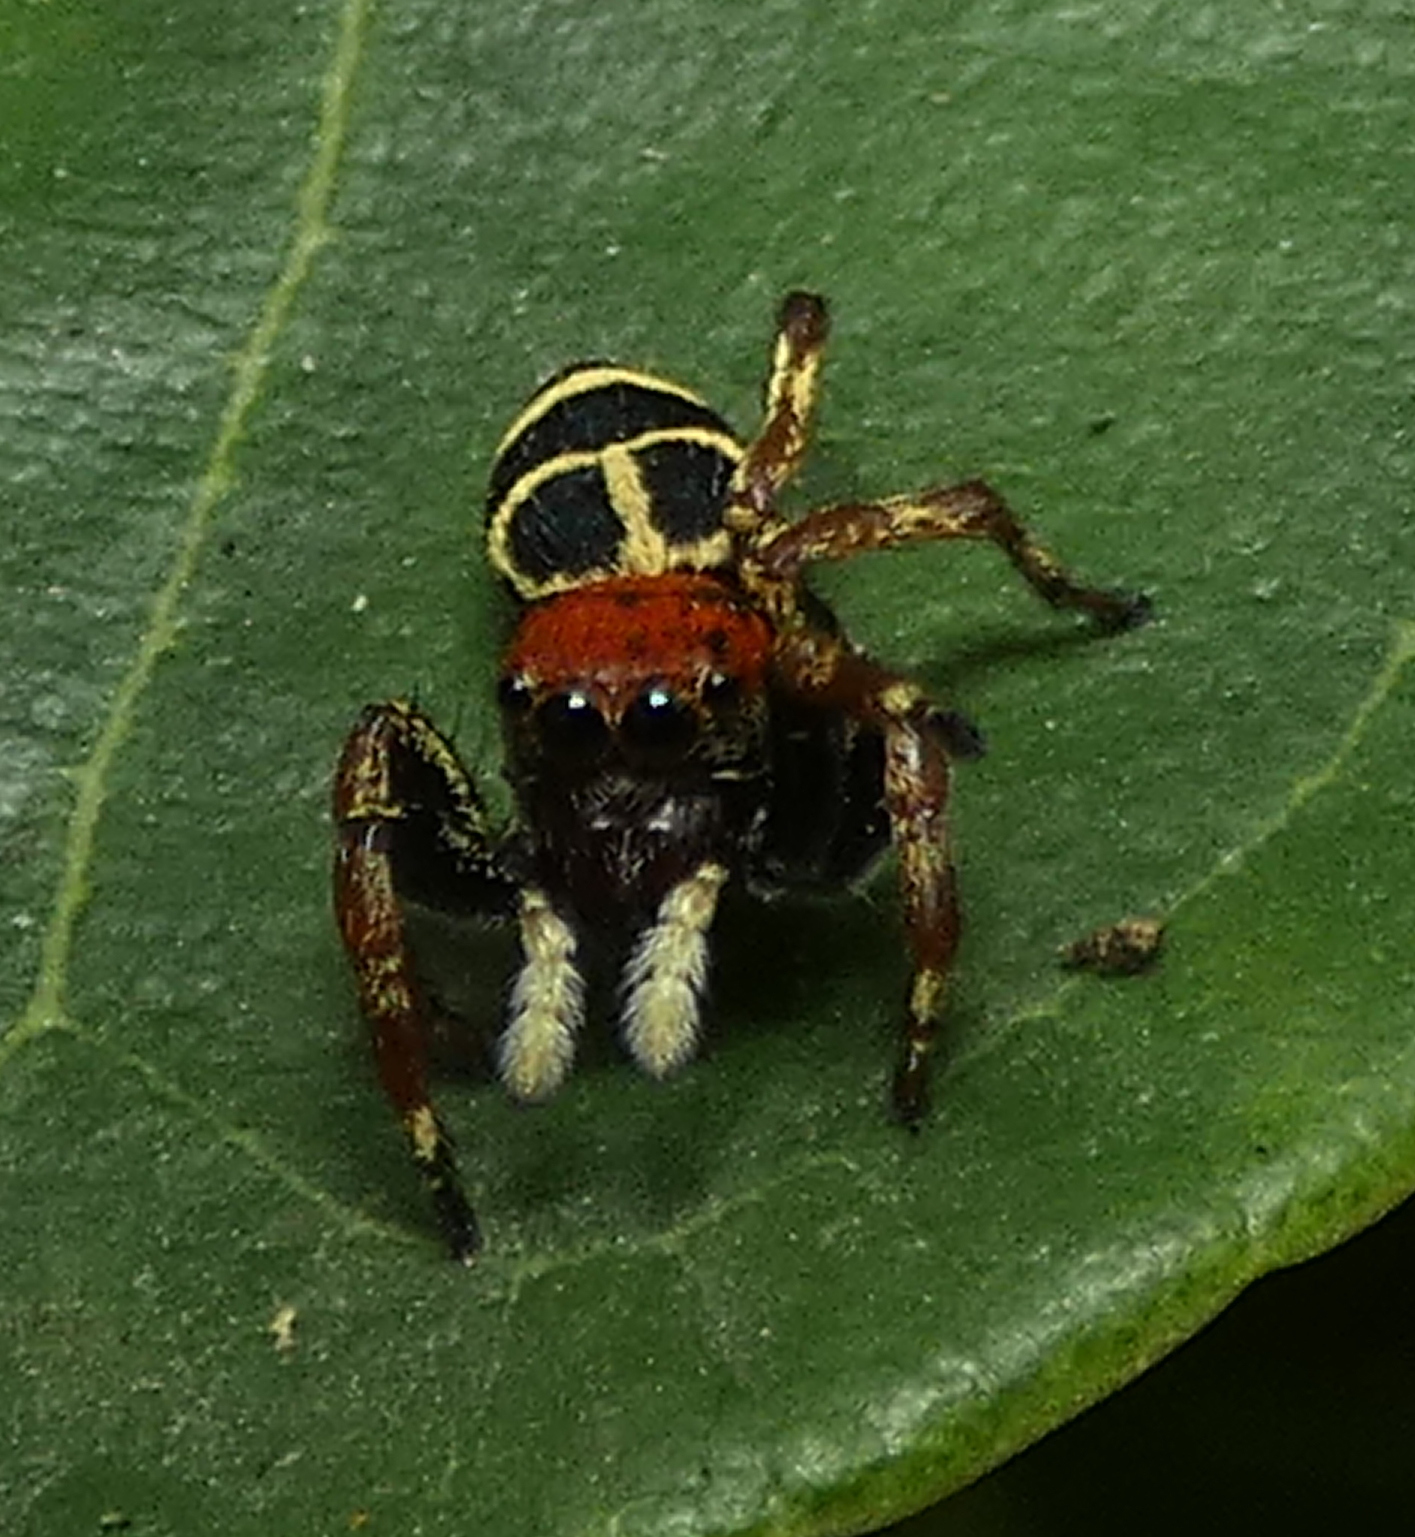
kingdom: Animalia
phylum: Arthropoda
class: Arachnida
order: Araneae
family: Salticidae
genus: Phiale
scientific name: Phiale crocea
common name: Jumping spiders
